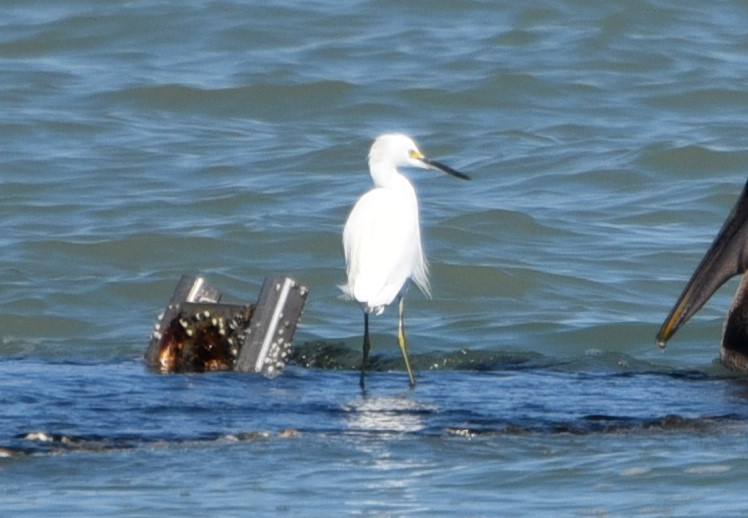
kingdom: Animalia
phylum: Chordata
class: Aves
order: Pelecaniformes
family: Ardeidae
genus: Egretta
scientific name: Egretta thula
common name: Snowy egret
